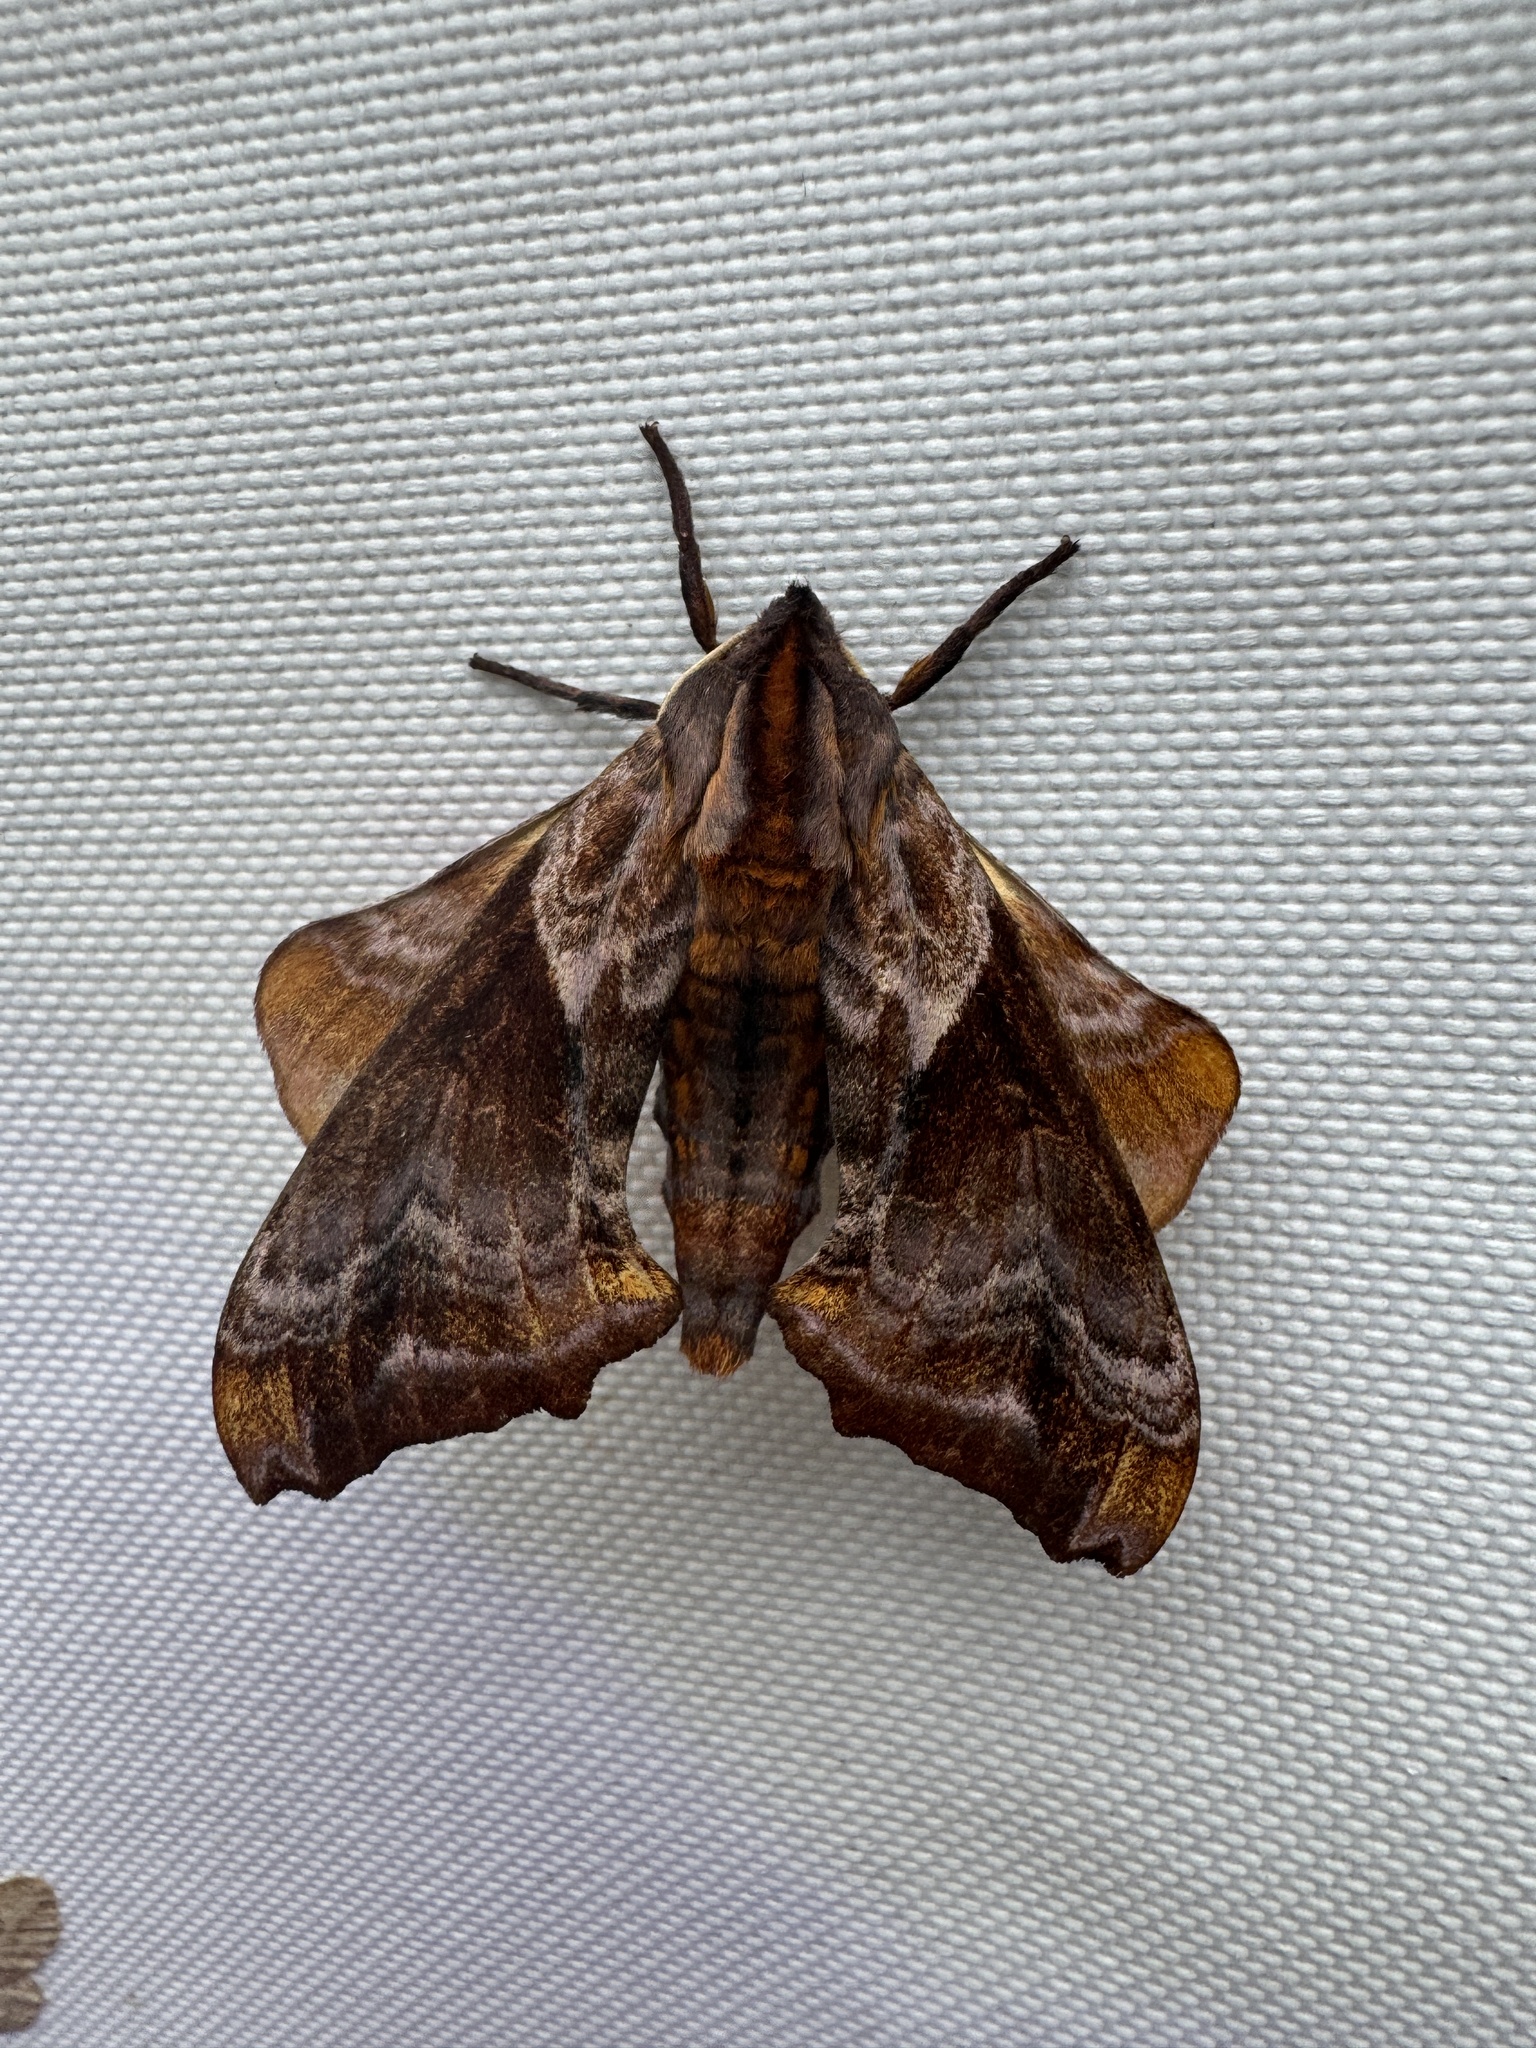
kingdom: Animalia
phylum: Arthropoda
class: Insecta
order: Lepidoptera
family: Sphingidae
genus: Paonias
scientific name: Paonias myops
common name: Small-eyed sphinx
